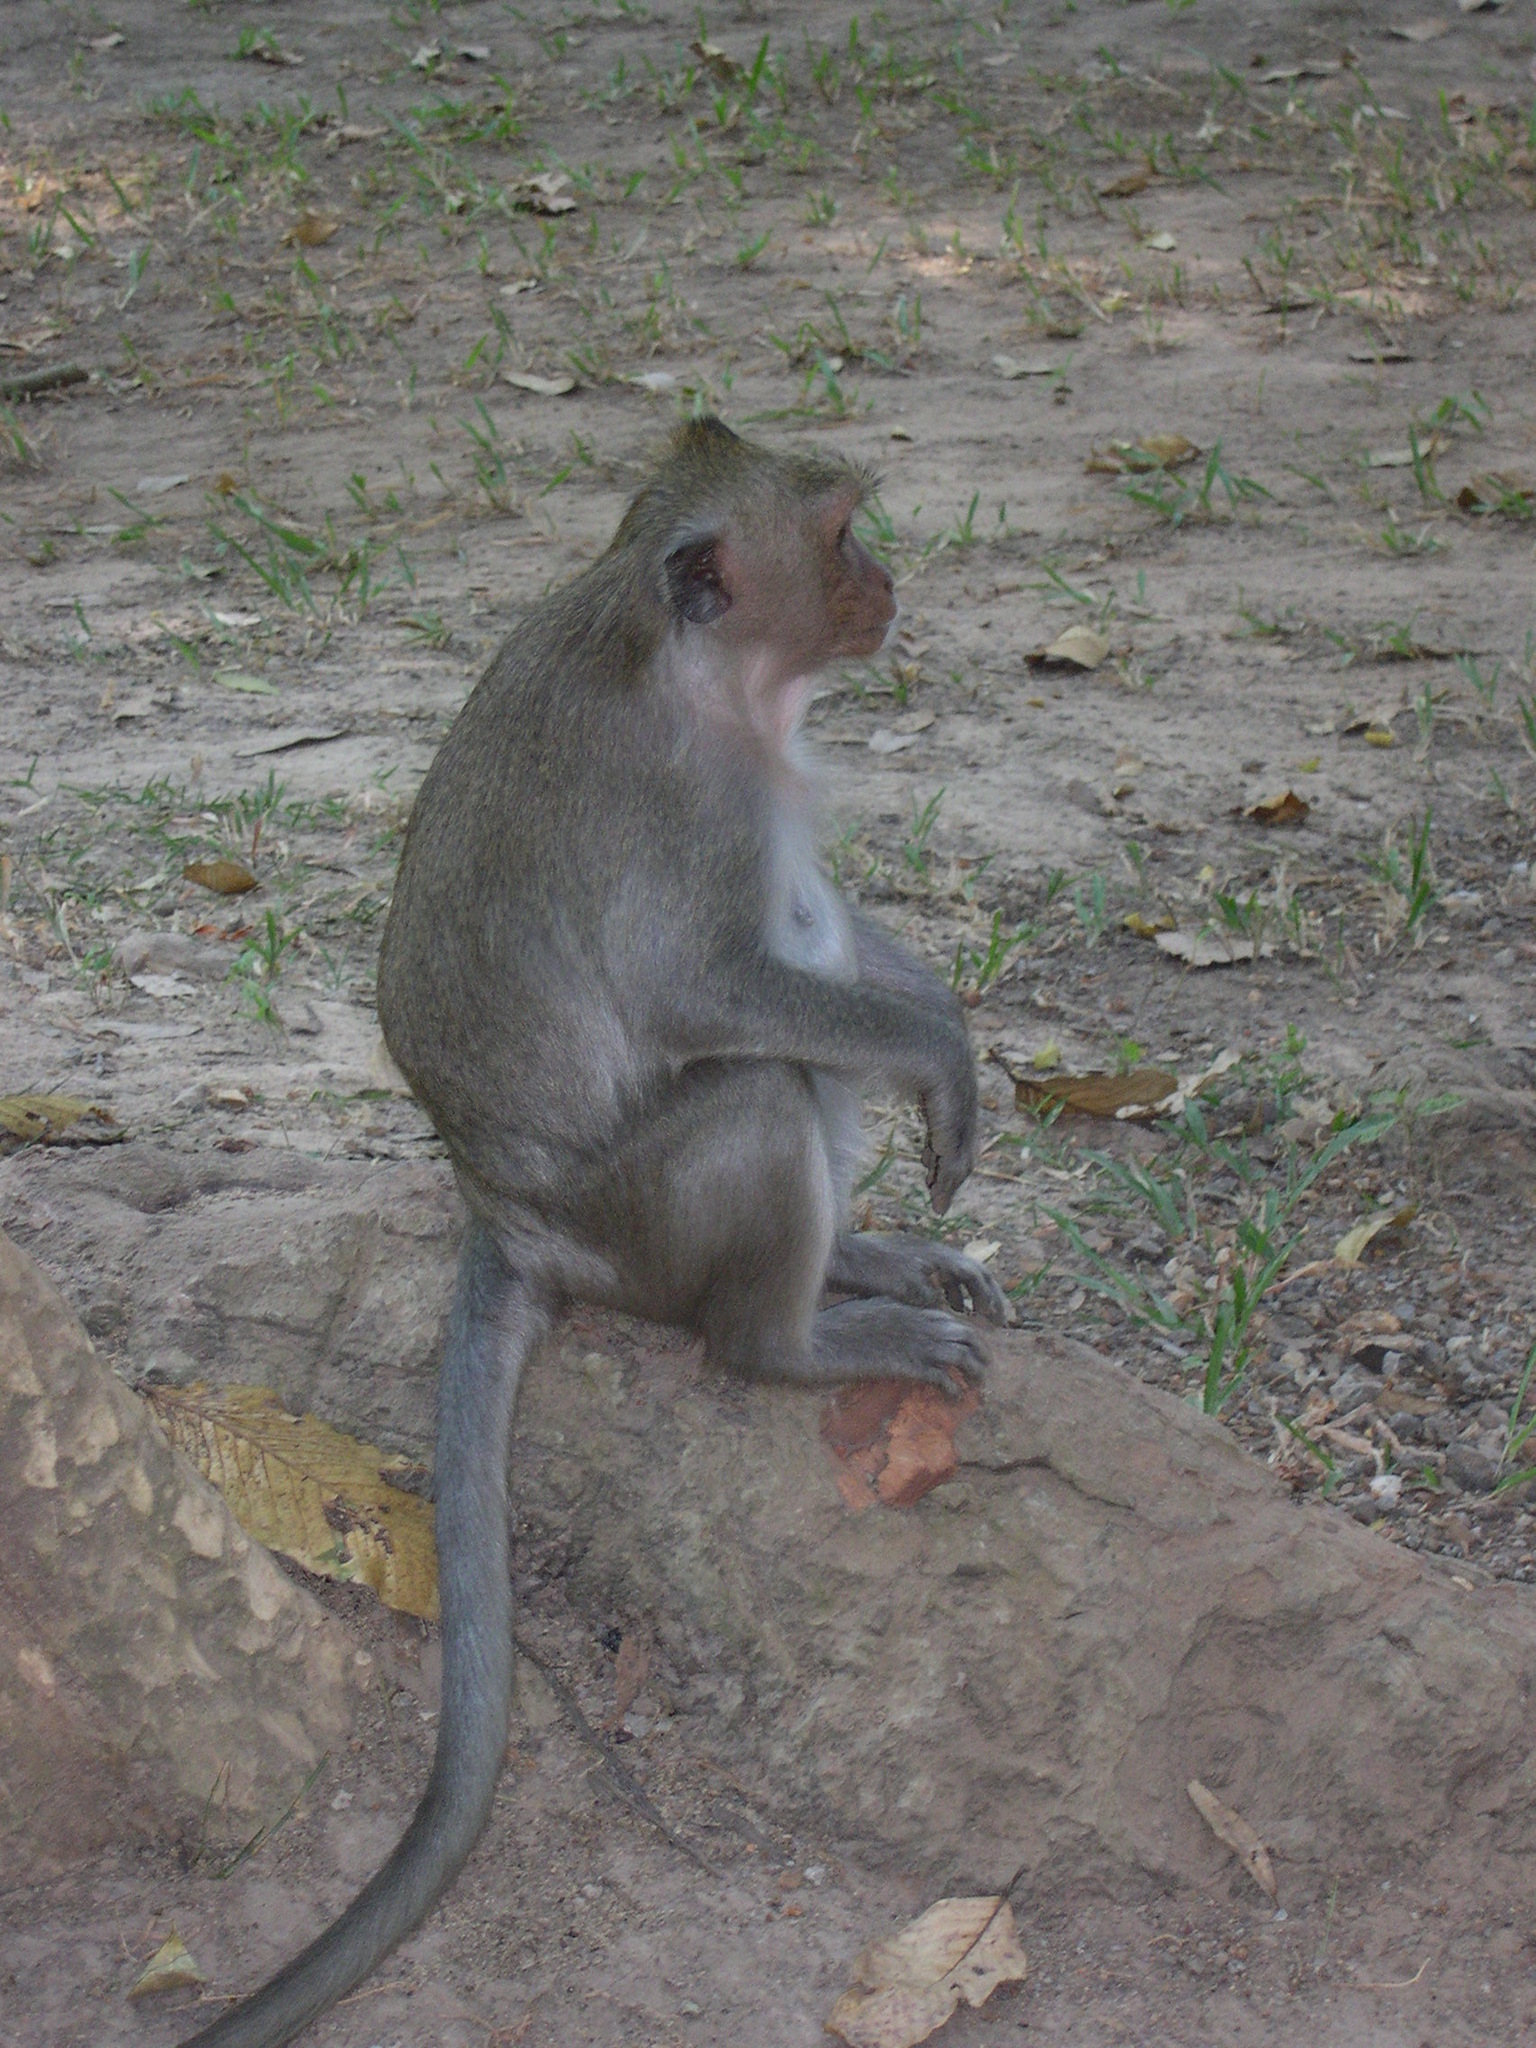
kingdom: Animalia
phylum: Chordata
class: Mammalia
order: Primates
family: Cercopithecidae
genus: Macaca
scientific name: Macaca fascicularis
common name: Crab-eating macaque
